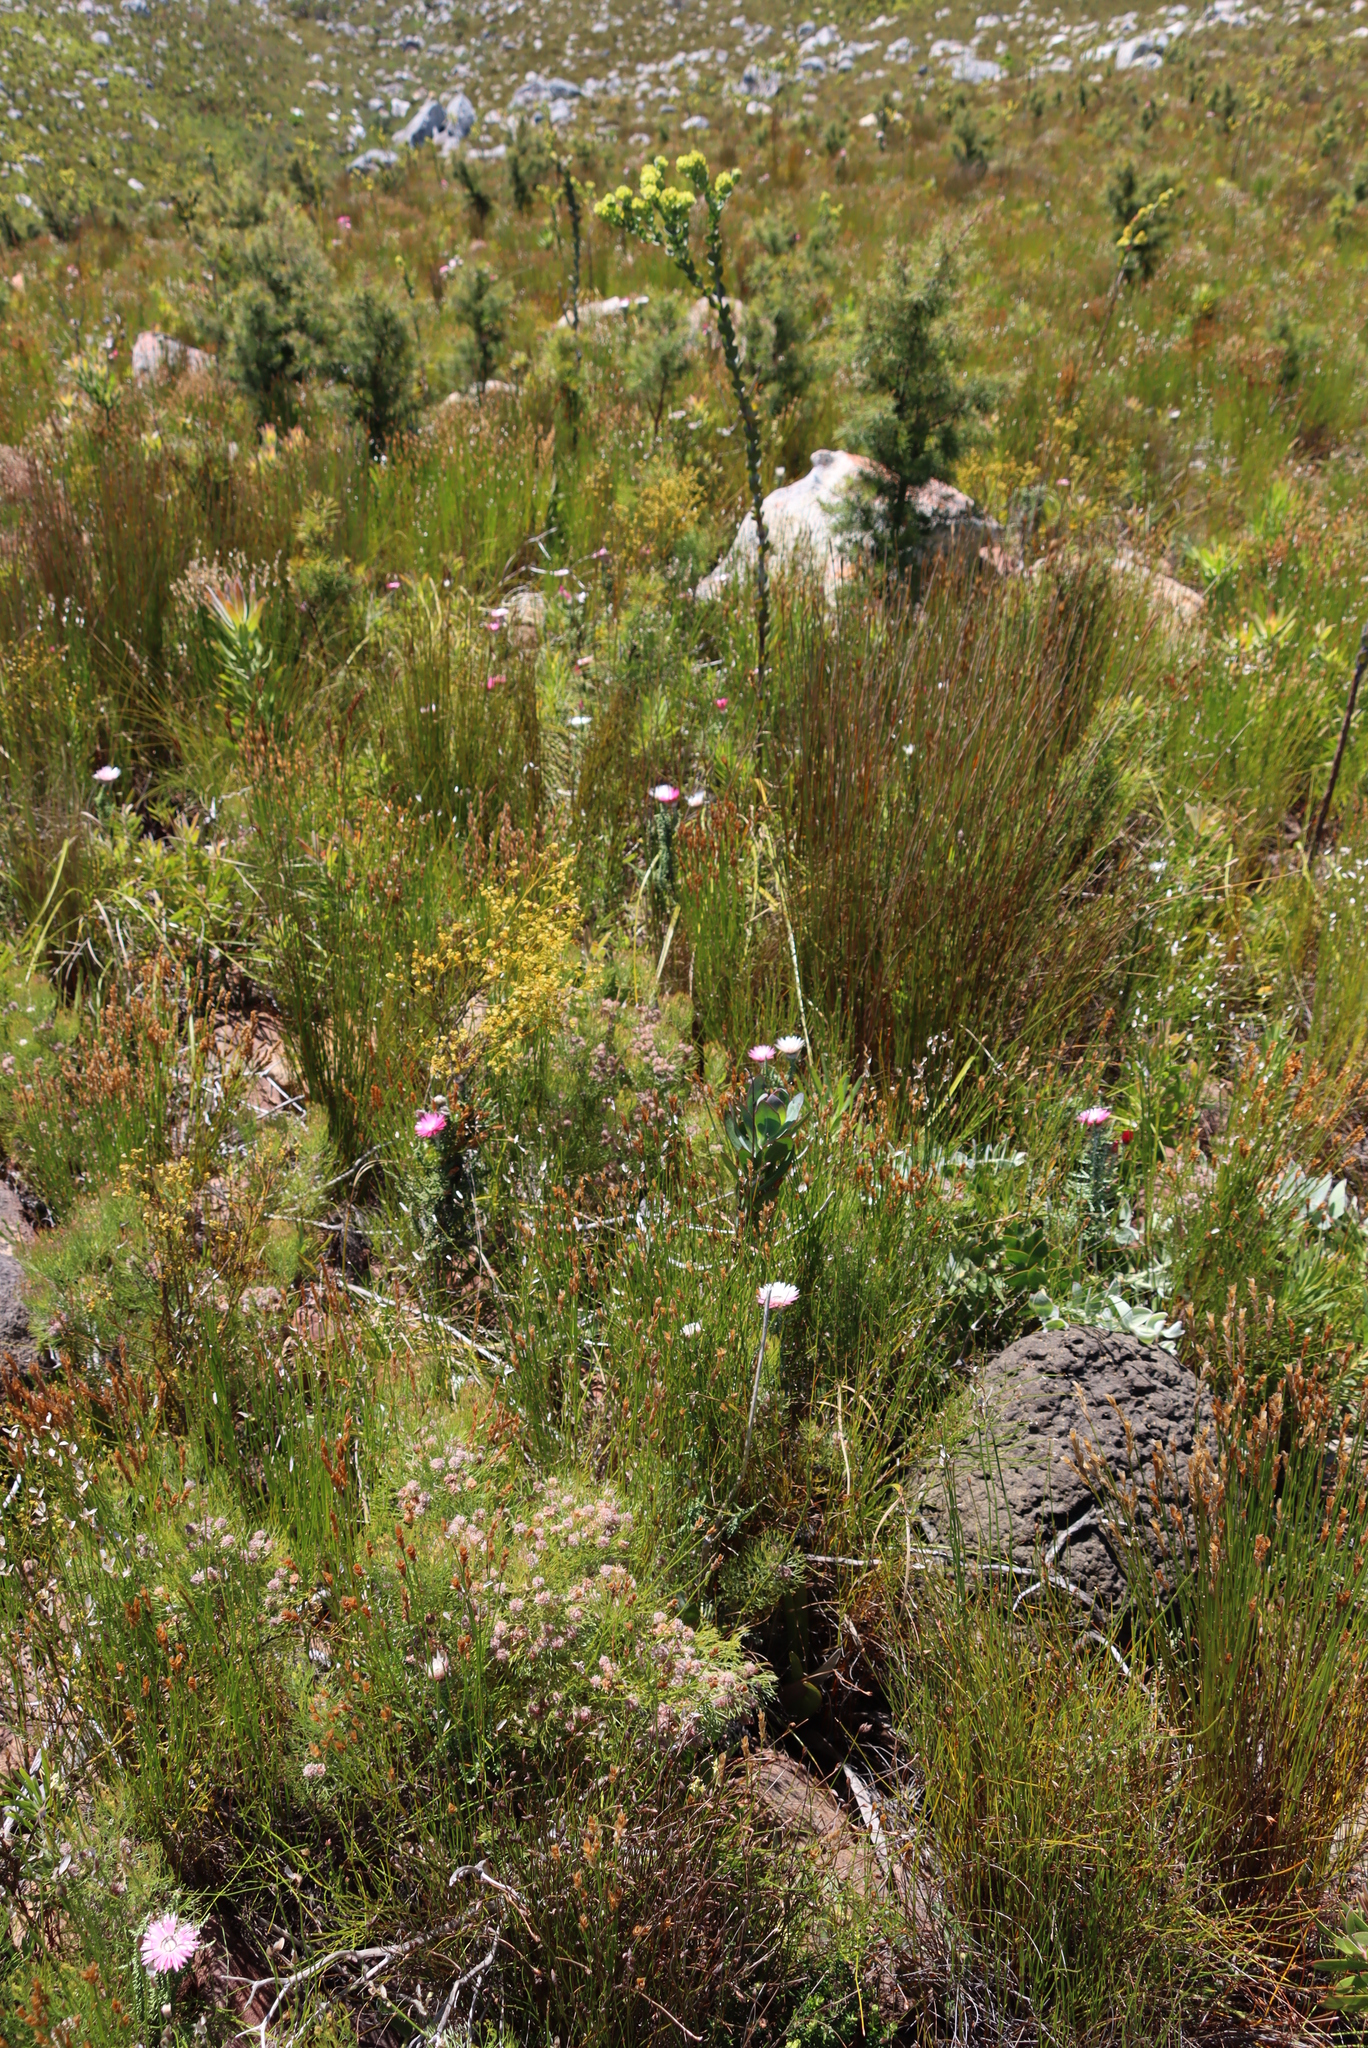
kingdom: Plantae
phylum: Tracheophyta
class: Magnoliopsida
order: Santalales
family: Thesiaceae
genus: Thesium
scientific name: Thesium euphorbioides
